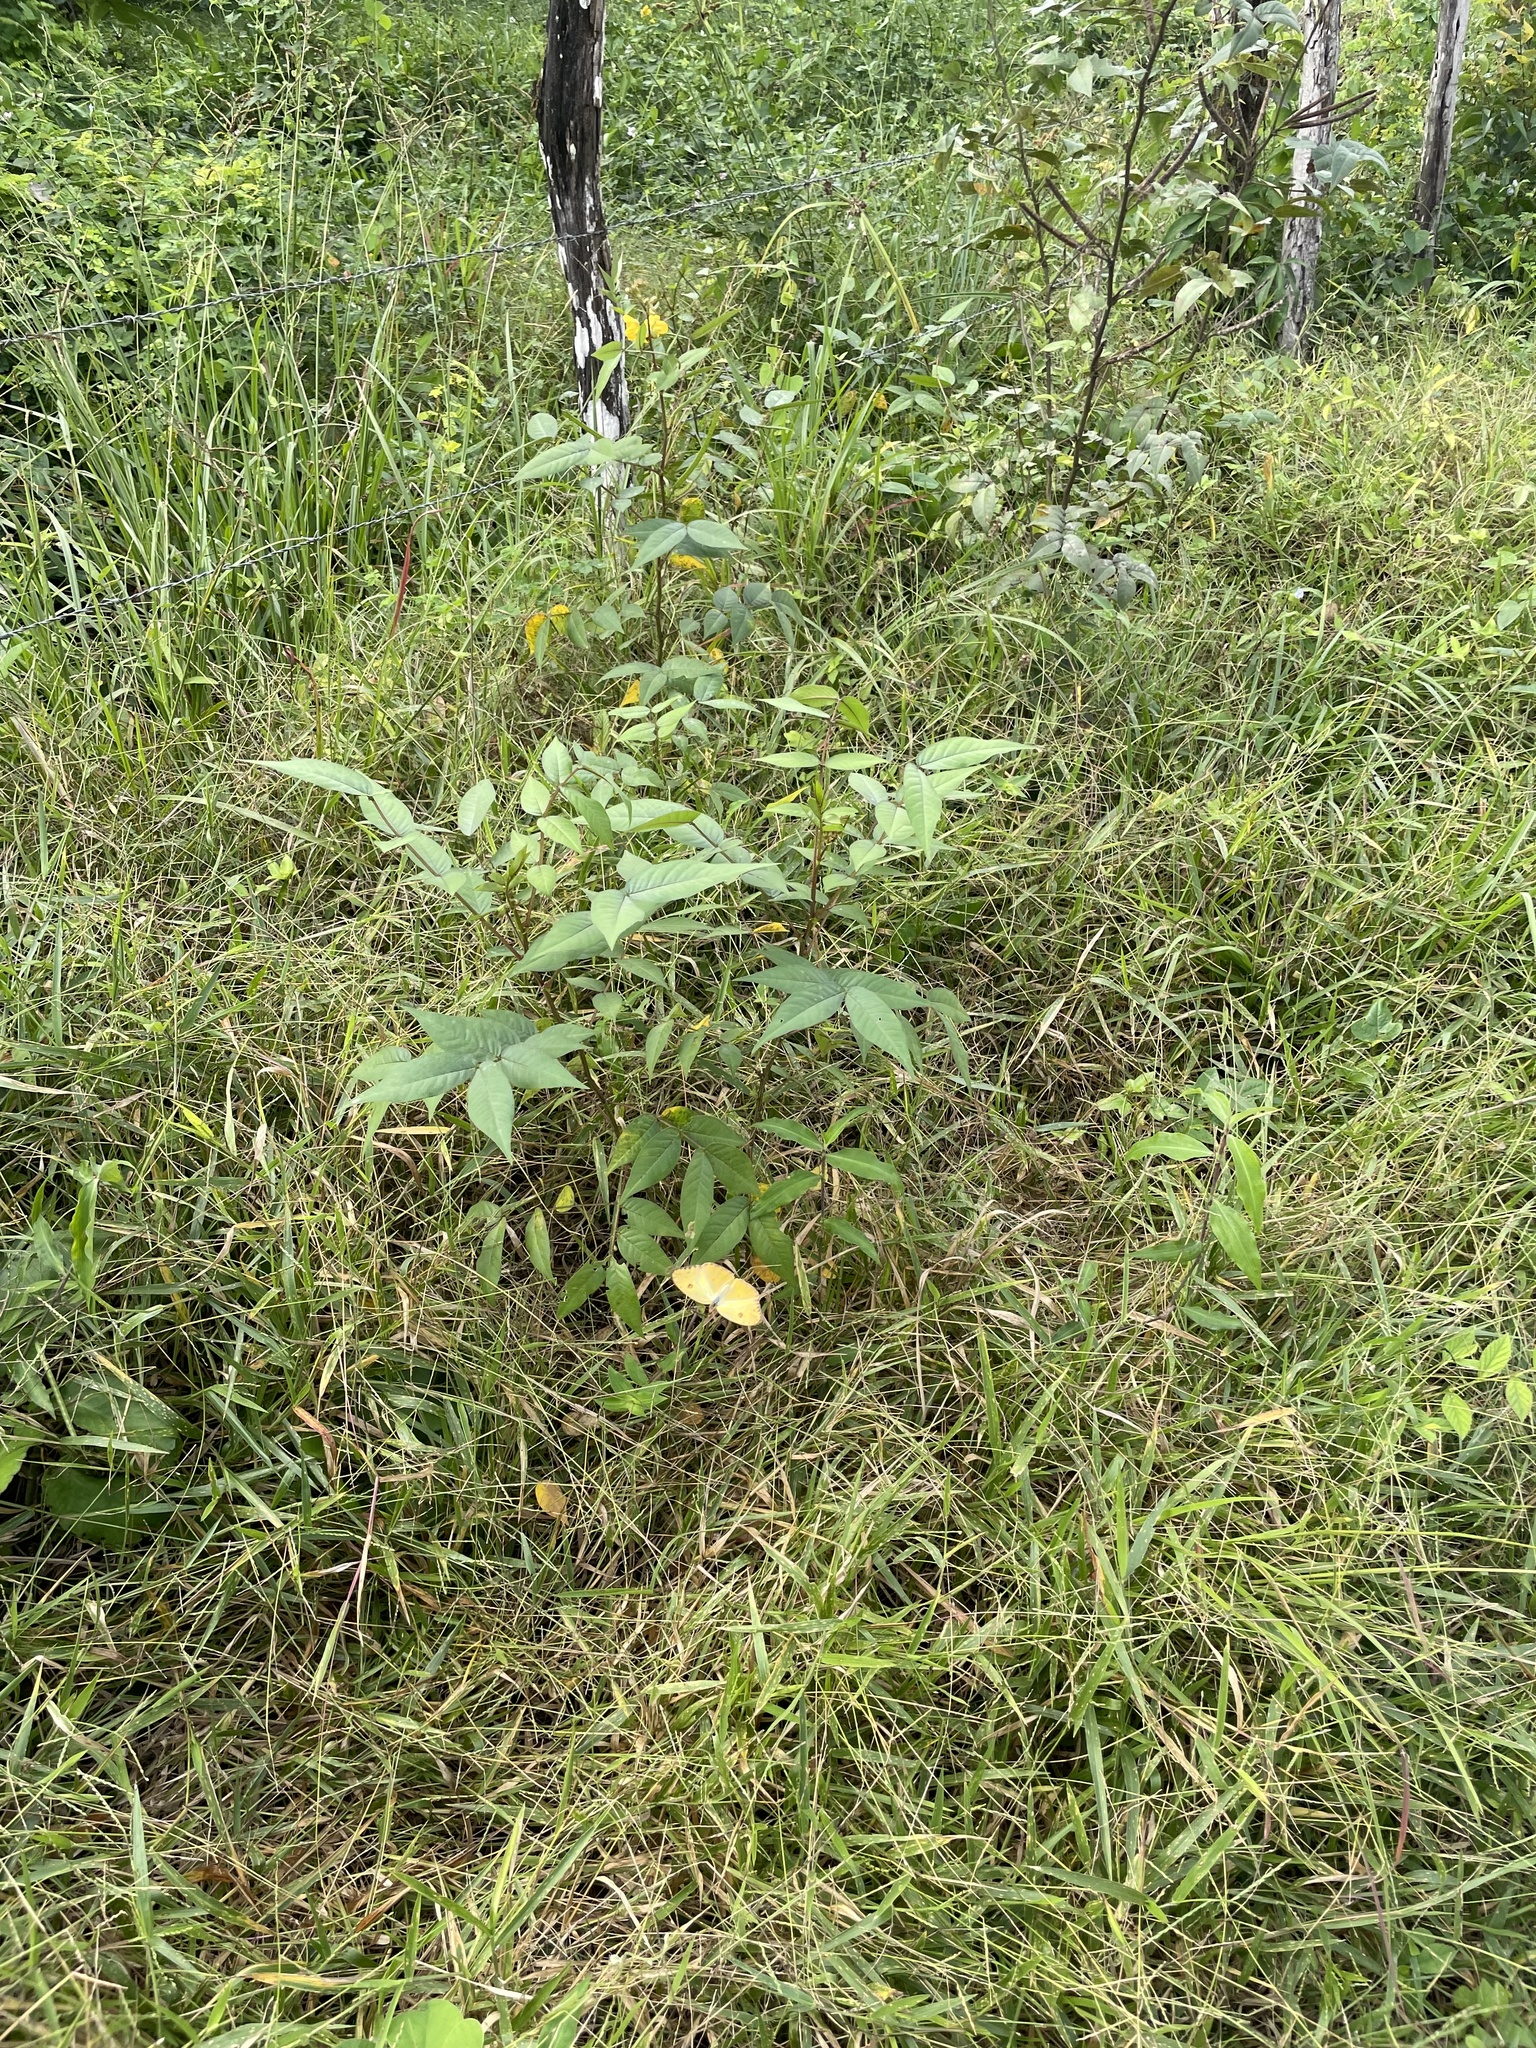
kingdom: Animalia
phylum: Arthropoda
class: Insecta
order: Lepidoptera
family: Pieridae
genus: Ascia
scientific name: Ascia monuste
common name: Great southern white
